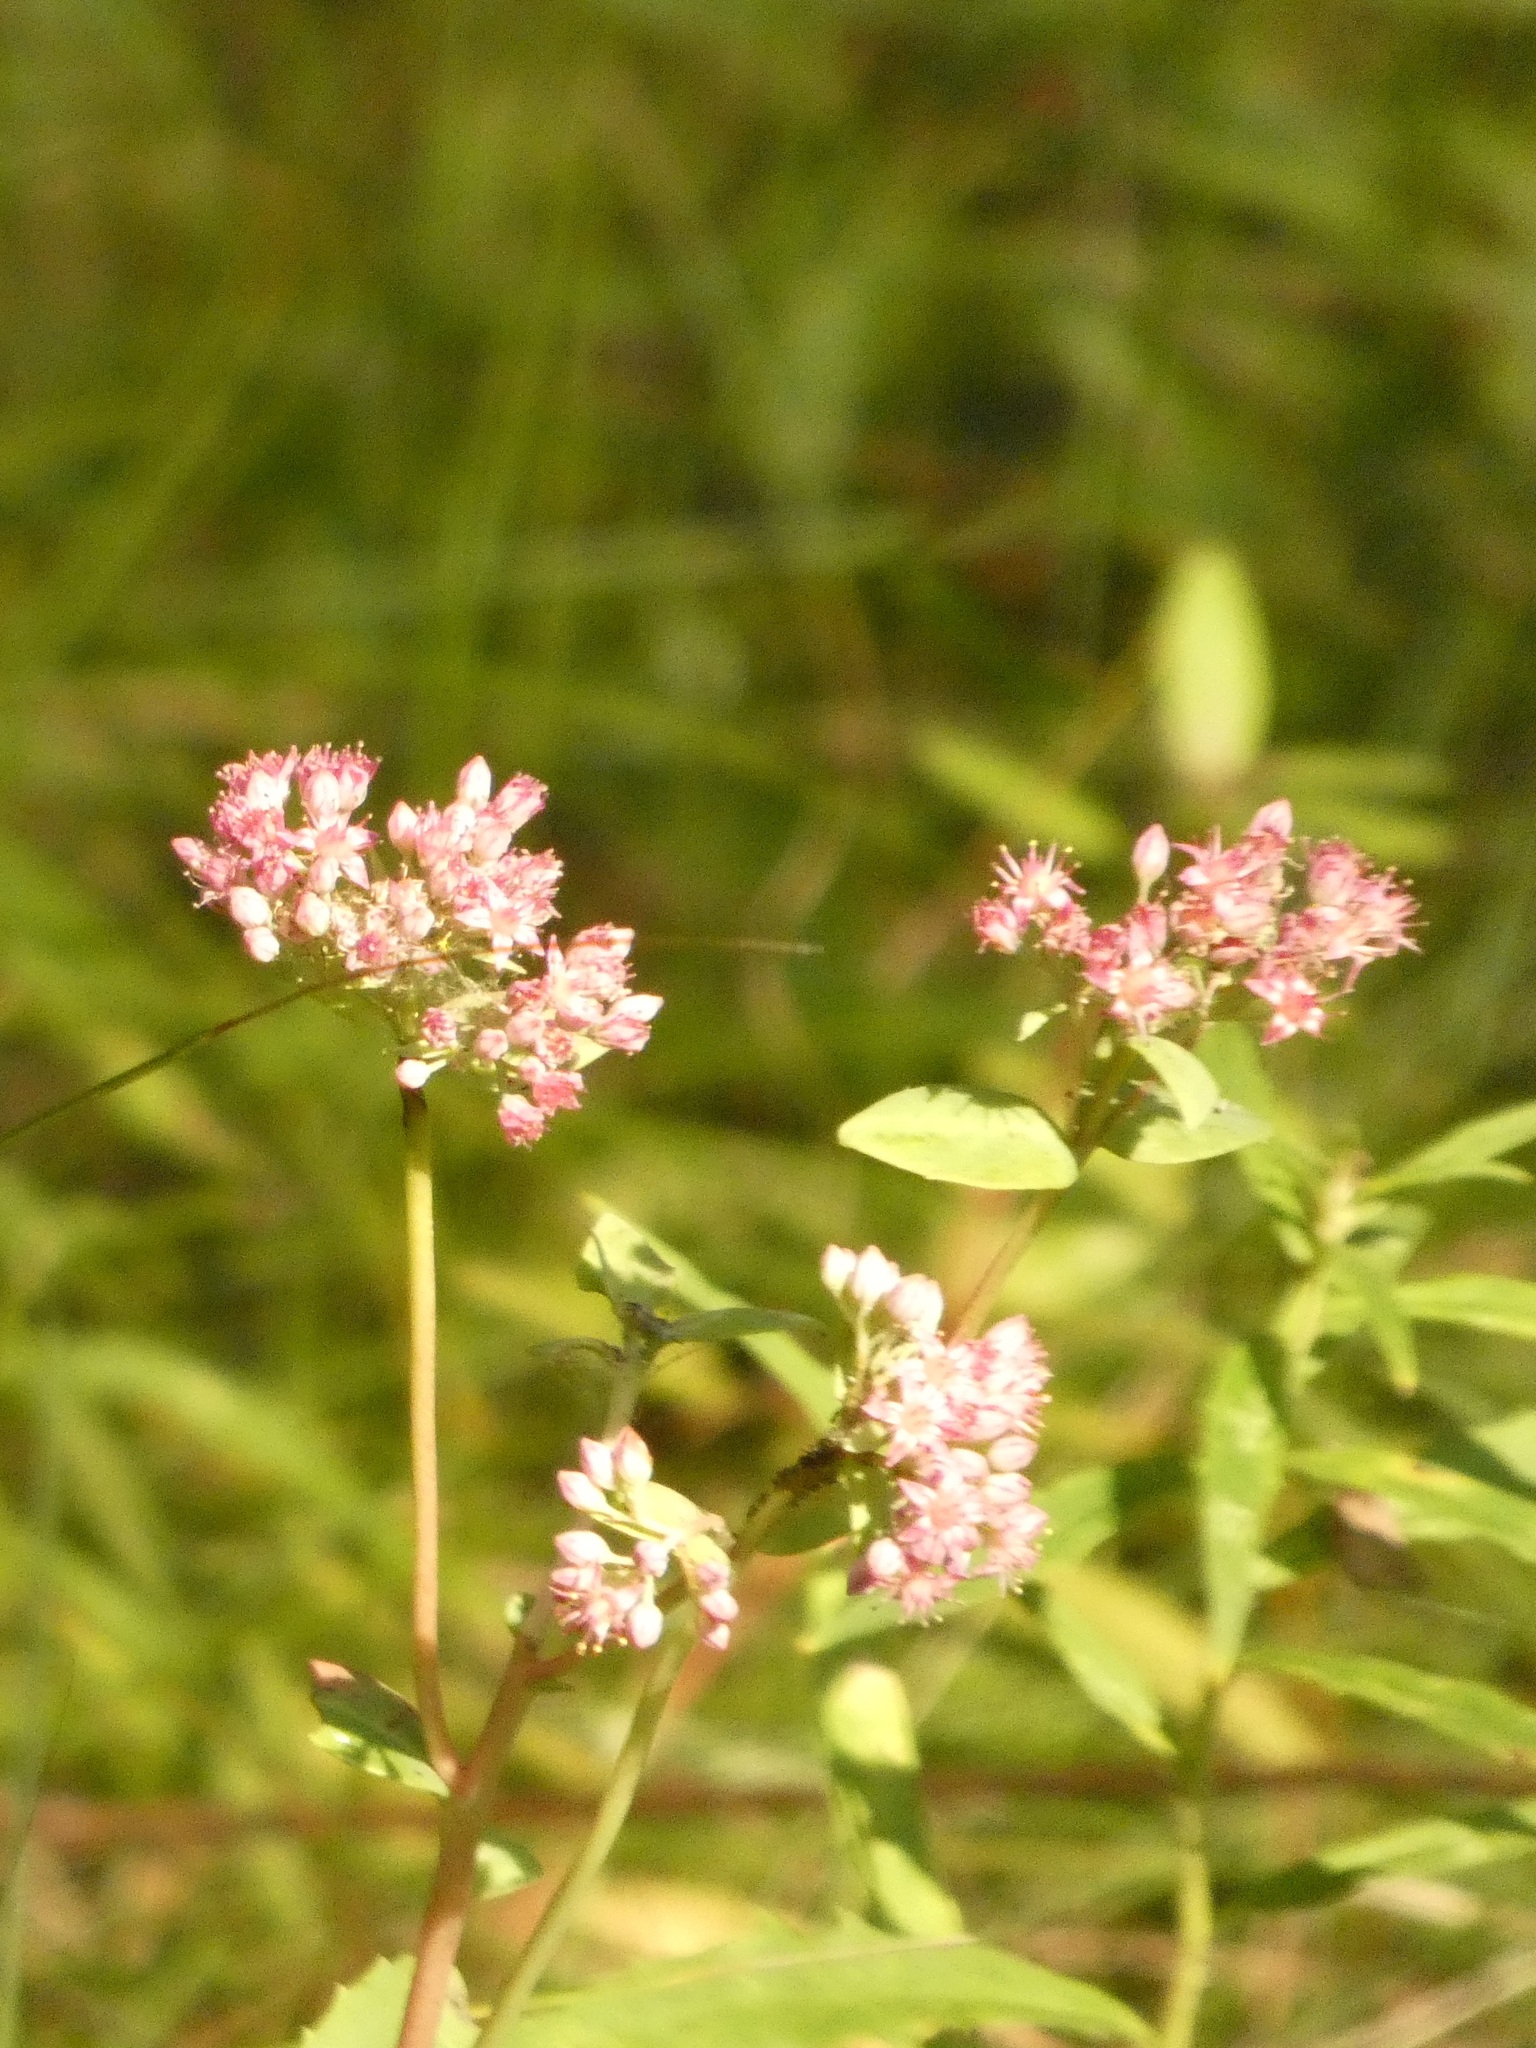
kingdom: Plantae
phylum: Tracheophyta
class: Magnoliopsida
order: Lamiales
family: Lamiaceae
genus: Origanum
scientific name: Origanum vulgare
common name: Wild marjoram
